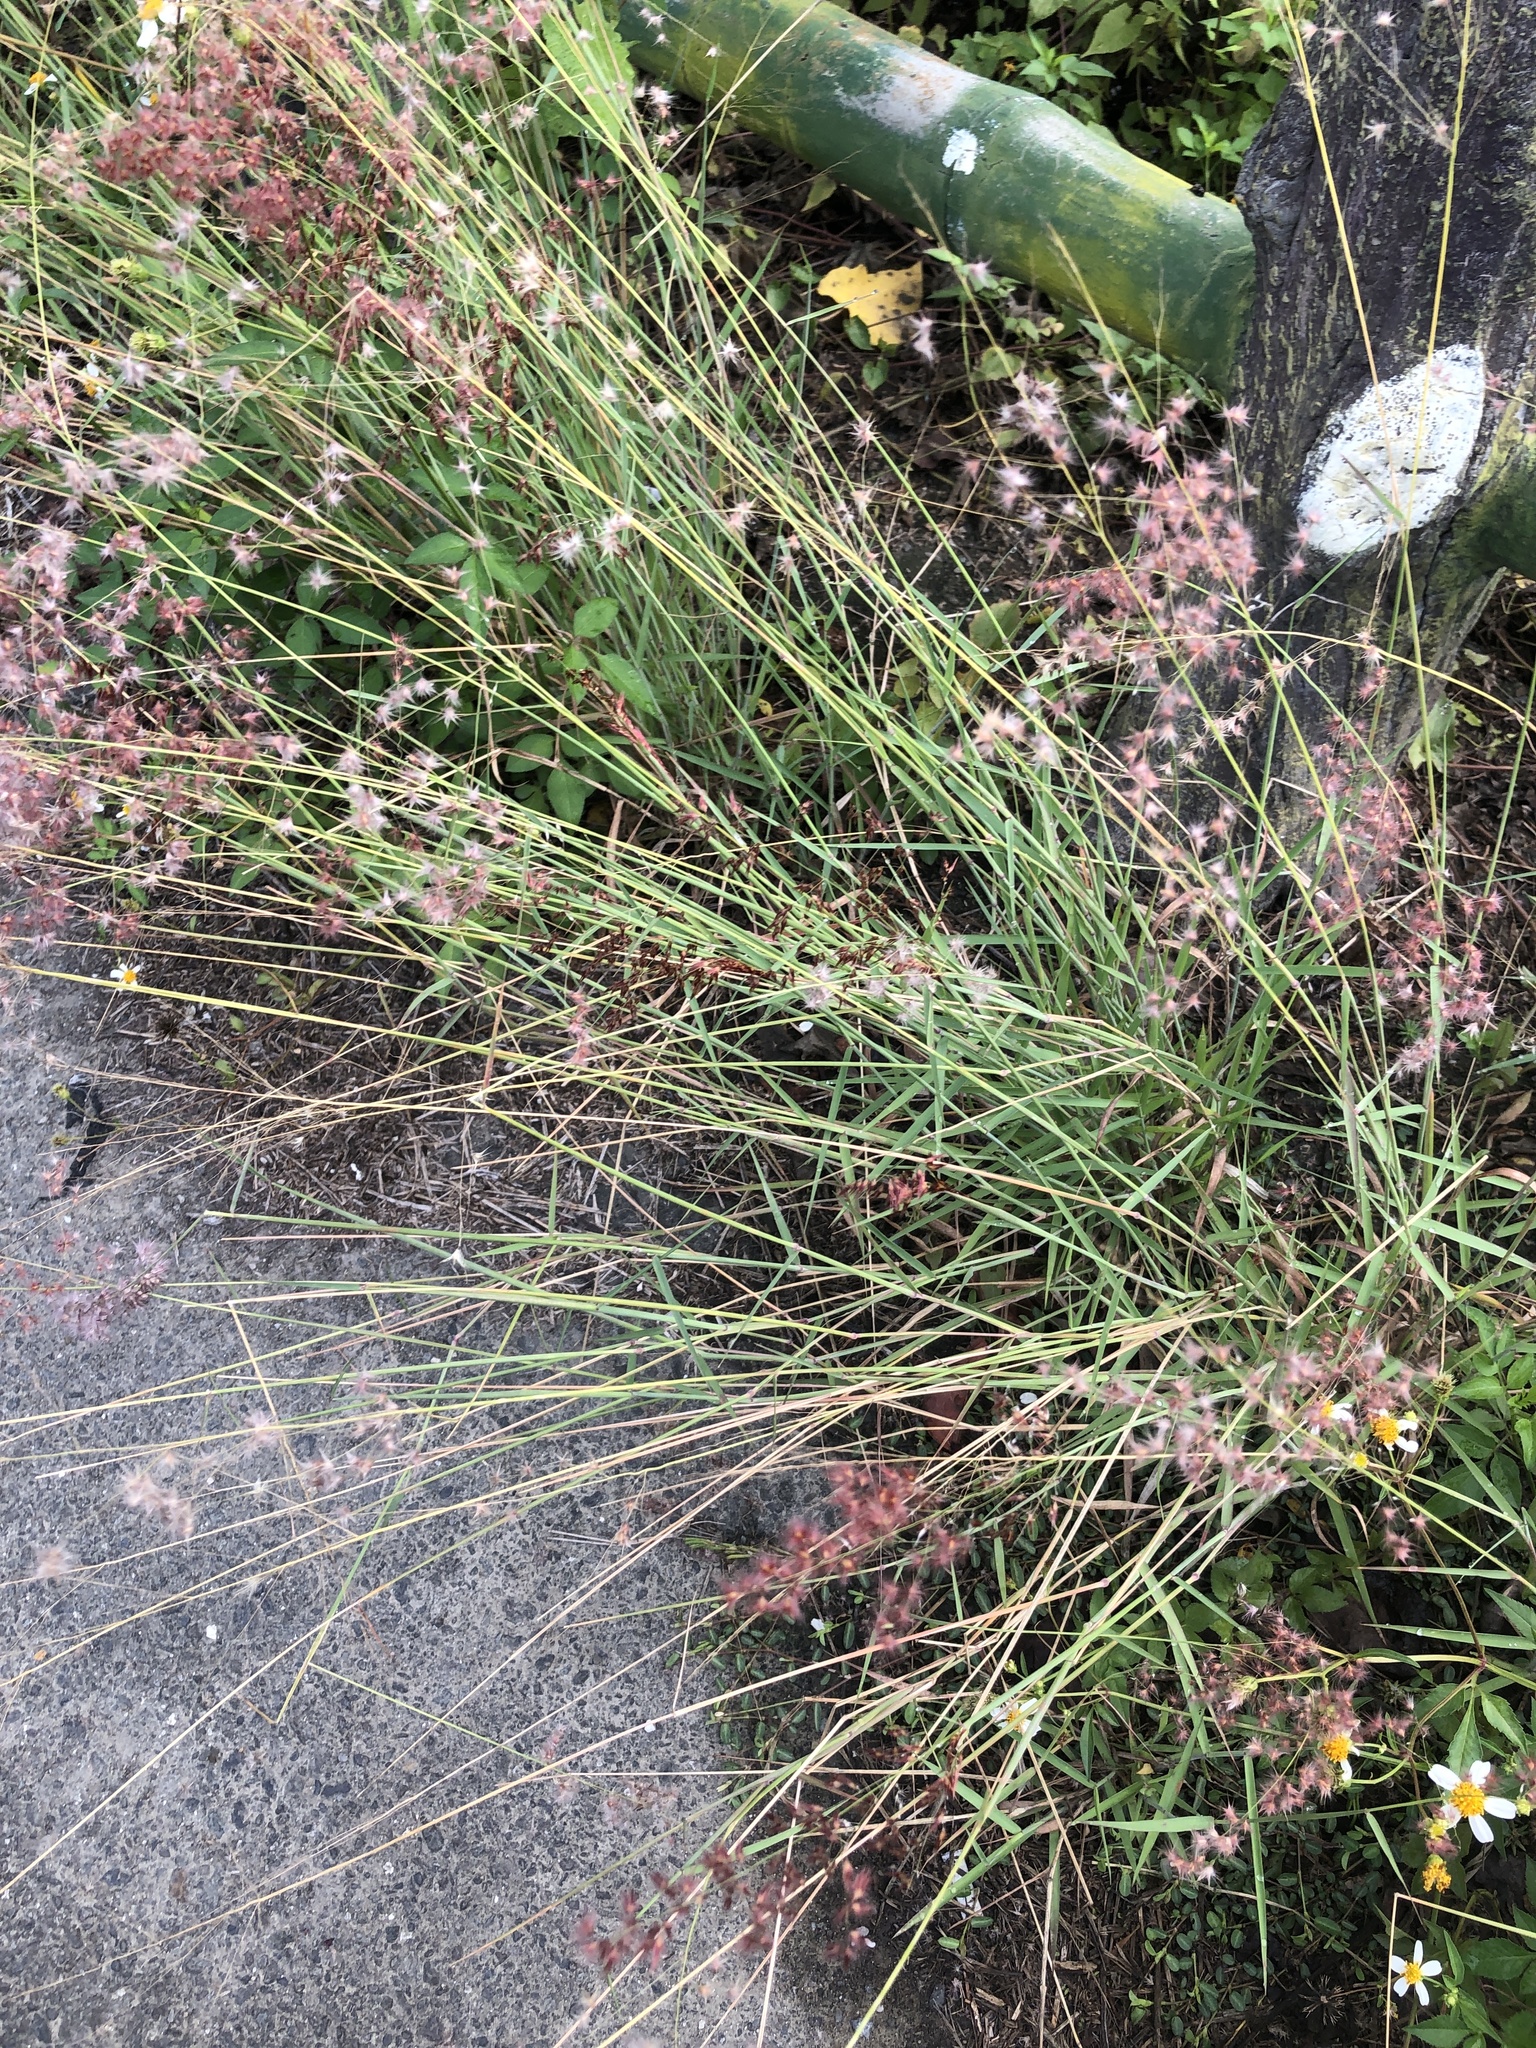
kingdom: Plantae
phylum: Tracheophyta
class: Liliopsida
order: Poales
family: Poaceae
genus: Melinis
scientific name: Melinis repens
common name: Rose natal grass
